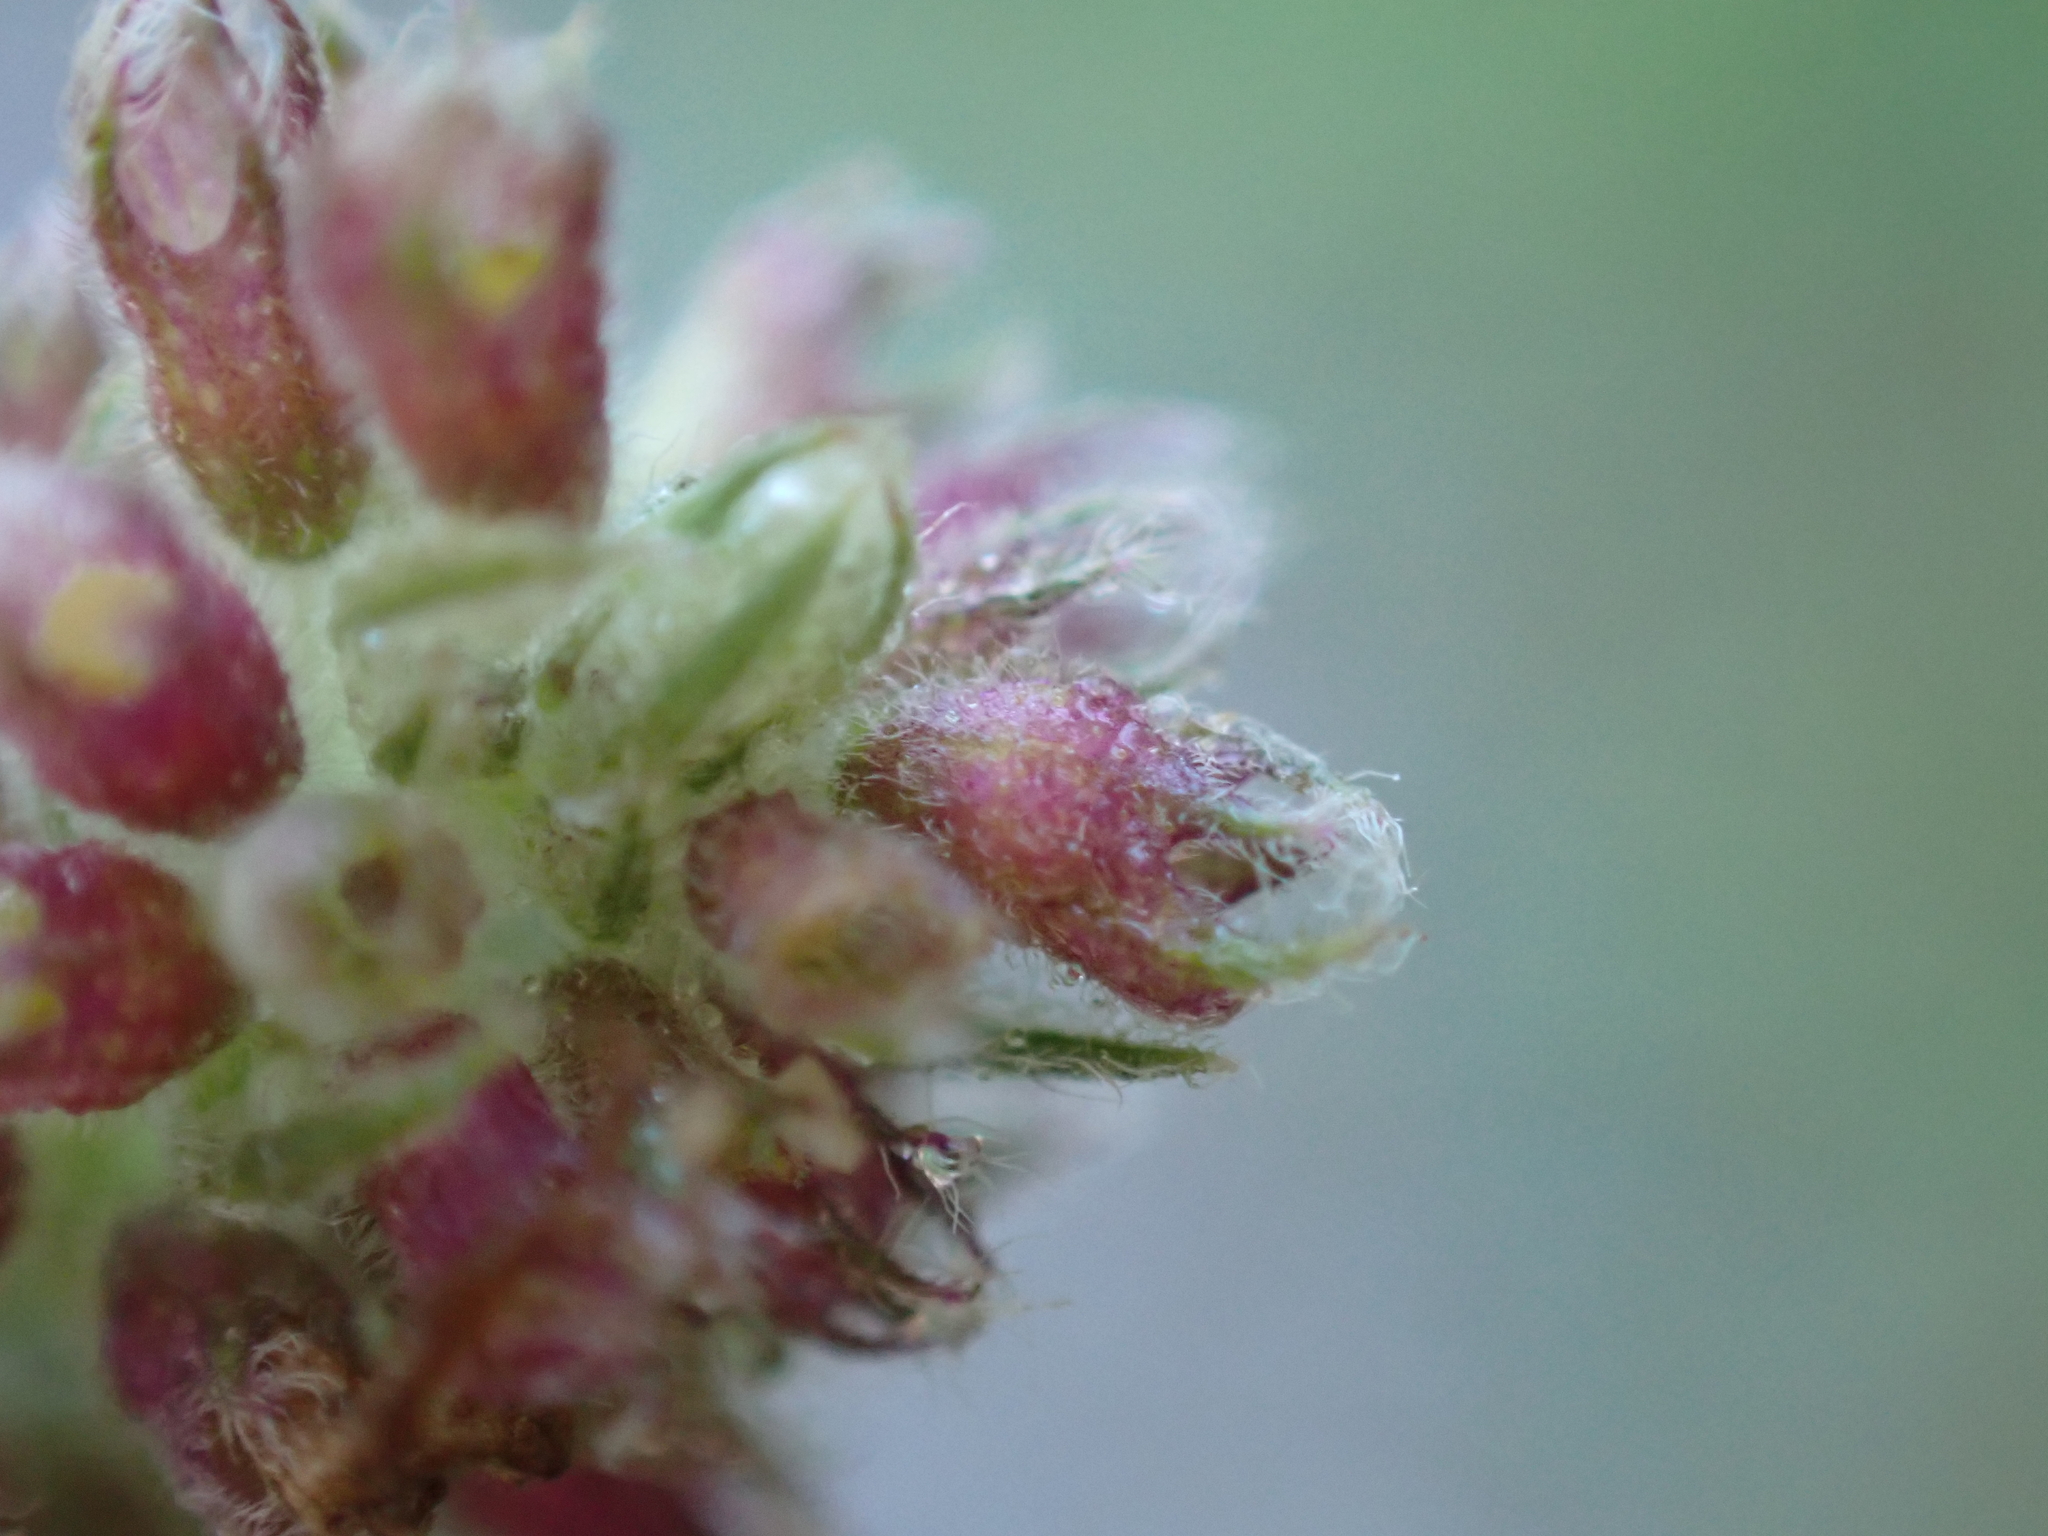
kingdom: Animalia
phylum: Arthropoda
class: Insecta
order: Diptera
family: Cecidomyiidae
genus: Asphondylia
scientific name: Asphondylia menthae
